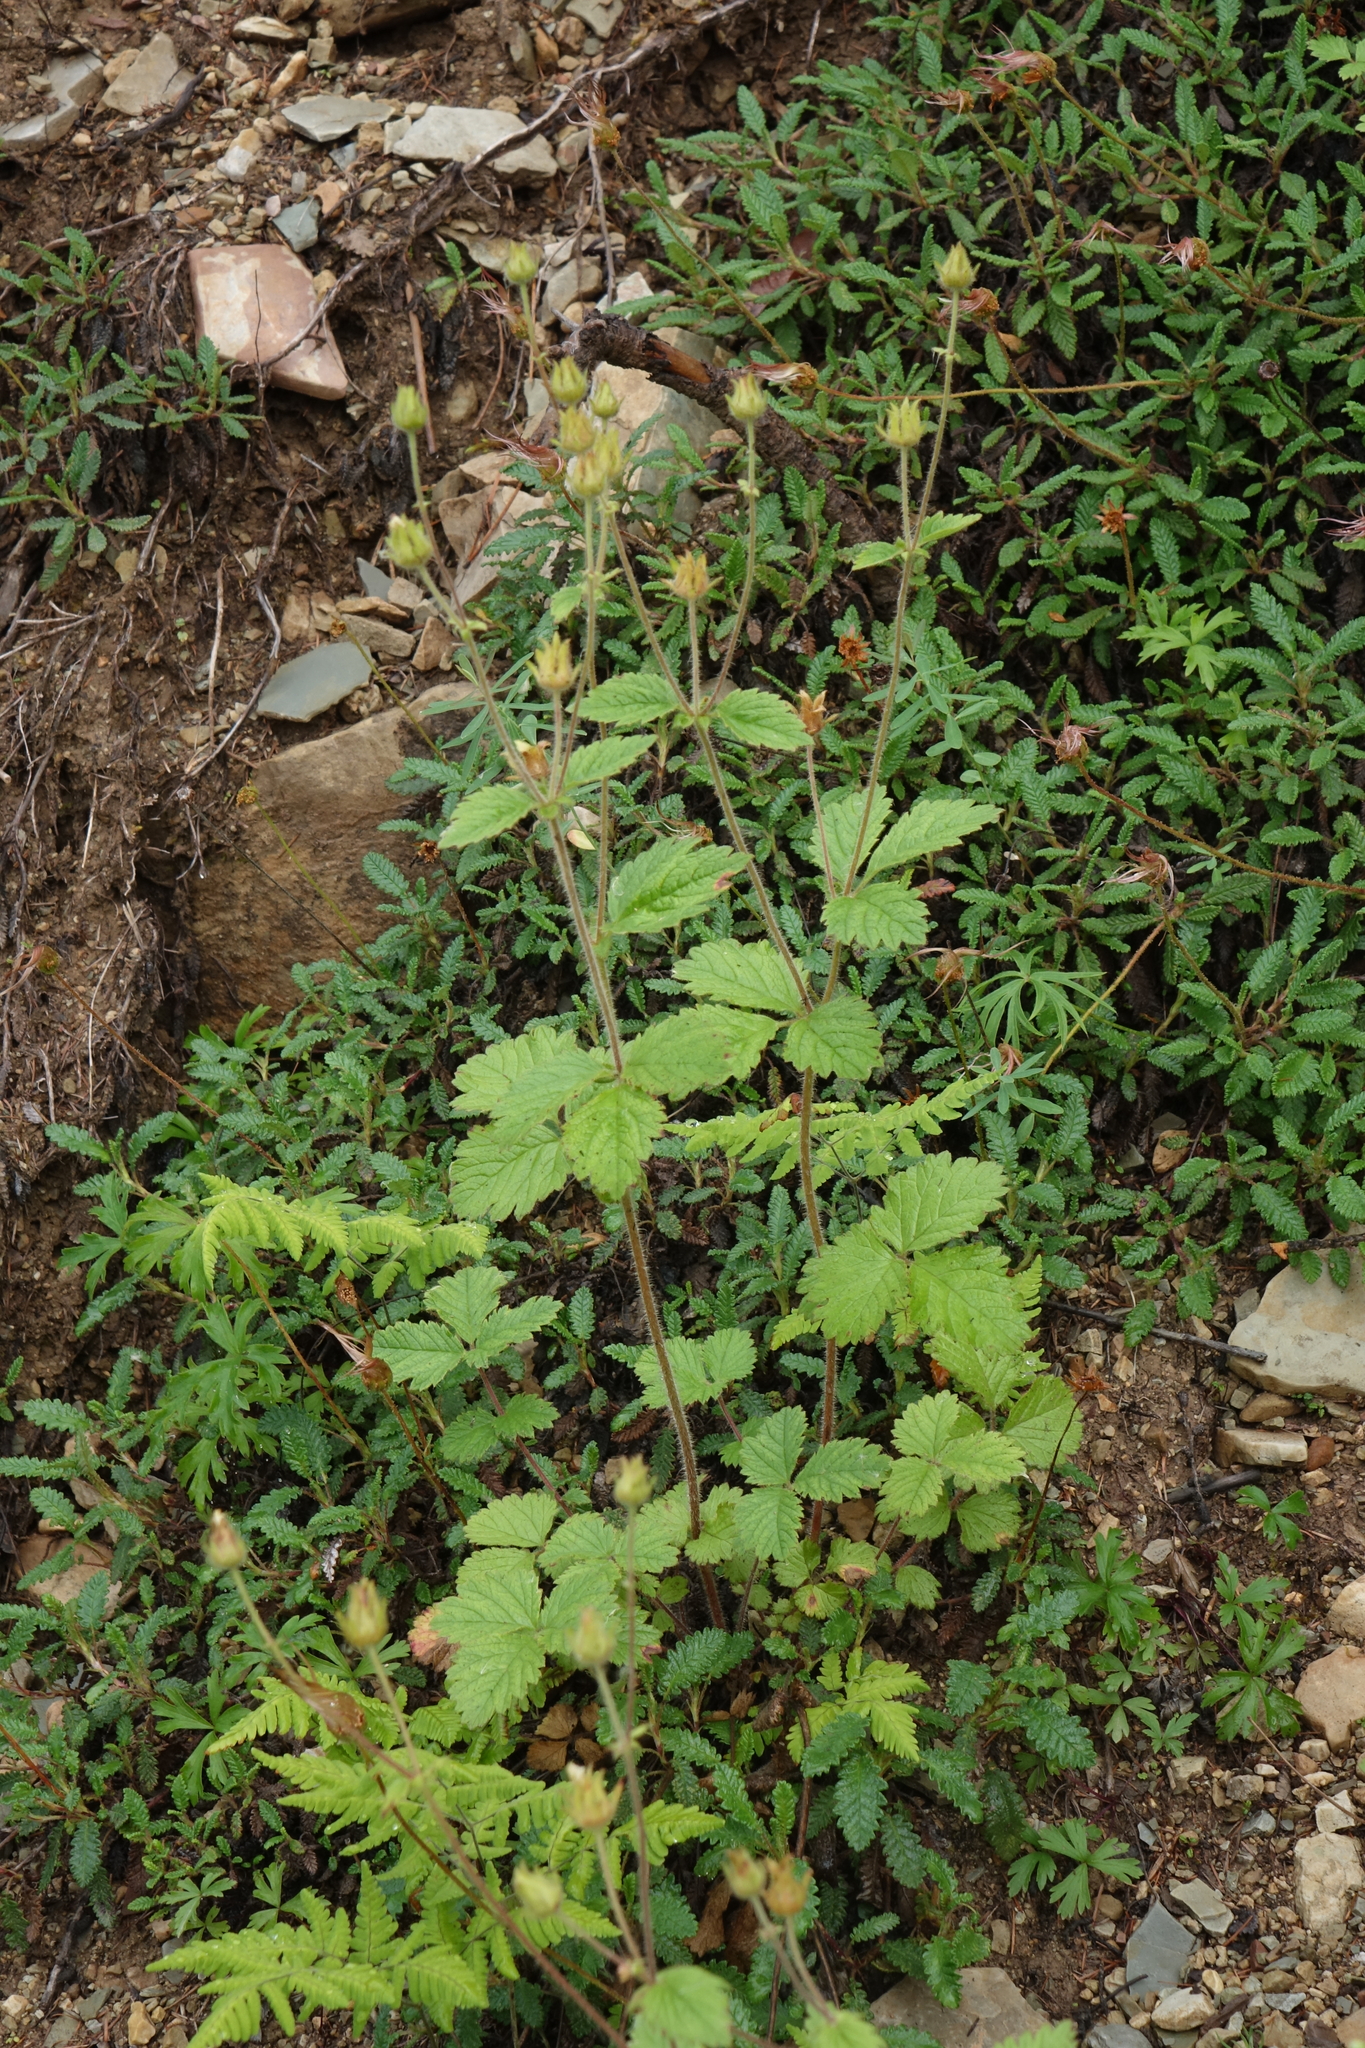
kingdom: Plantae
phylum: Tracheophyta
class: Magnoliopsida
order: Rosales
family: Rosaceae
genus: Drymocallis
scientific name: Drymocallis inquinans
